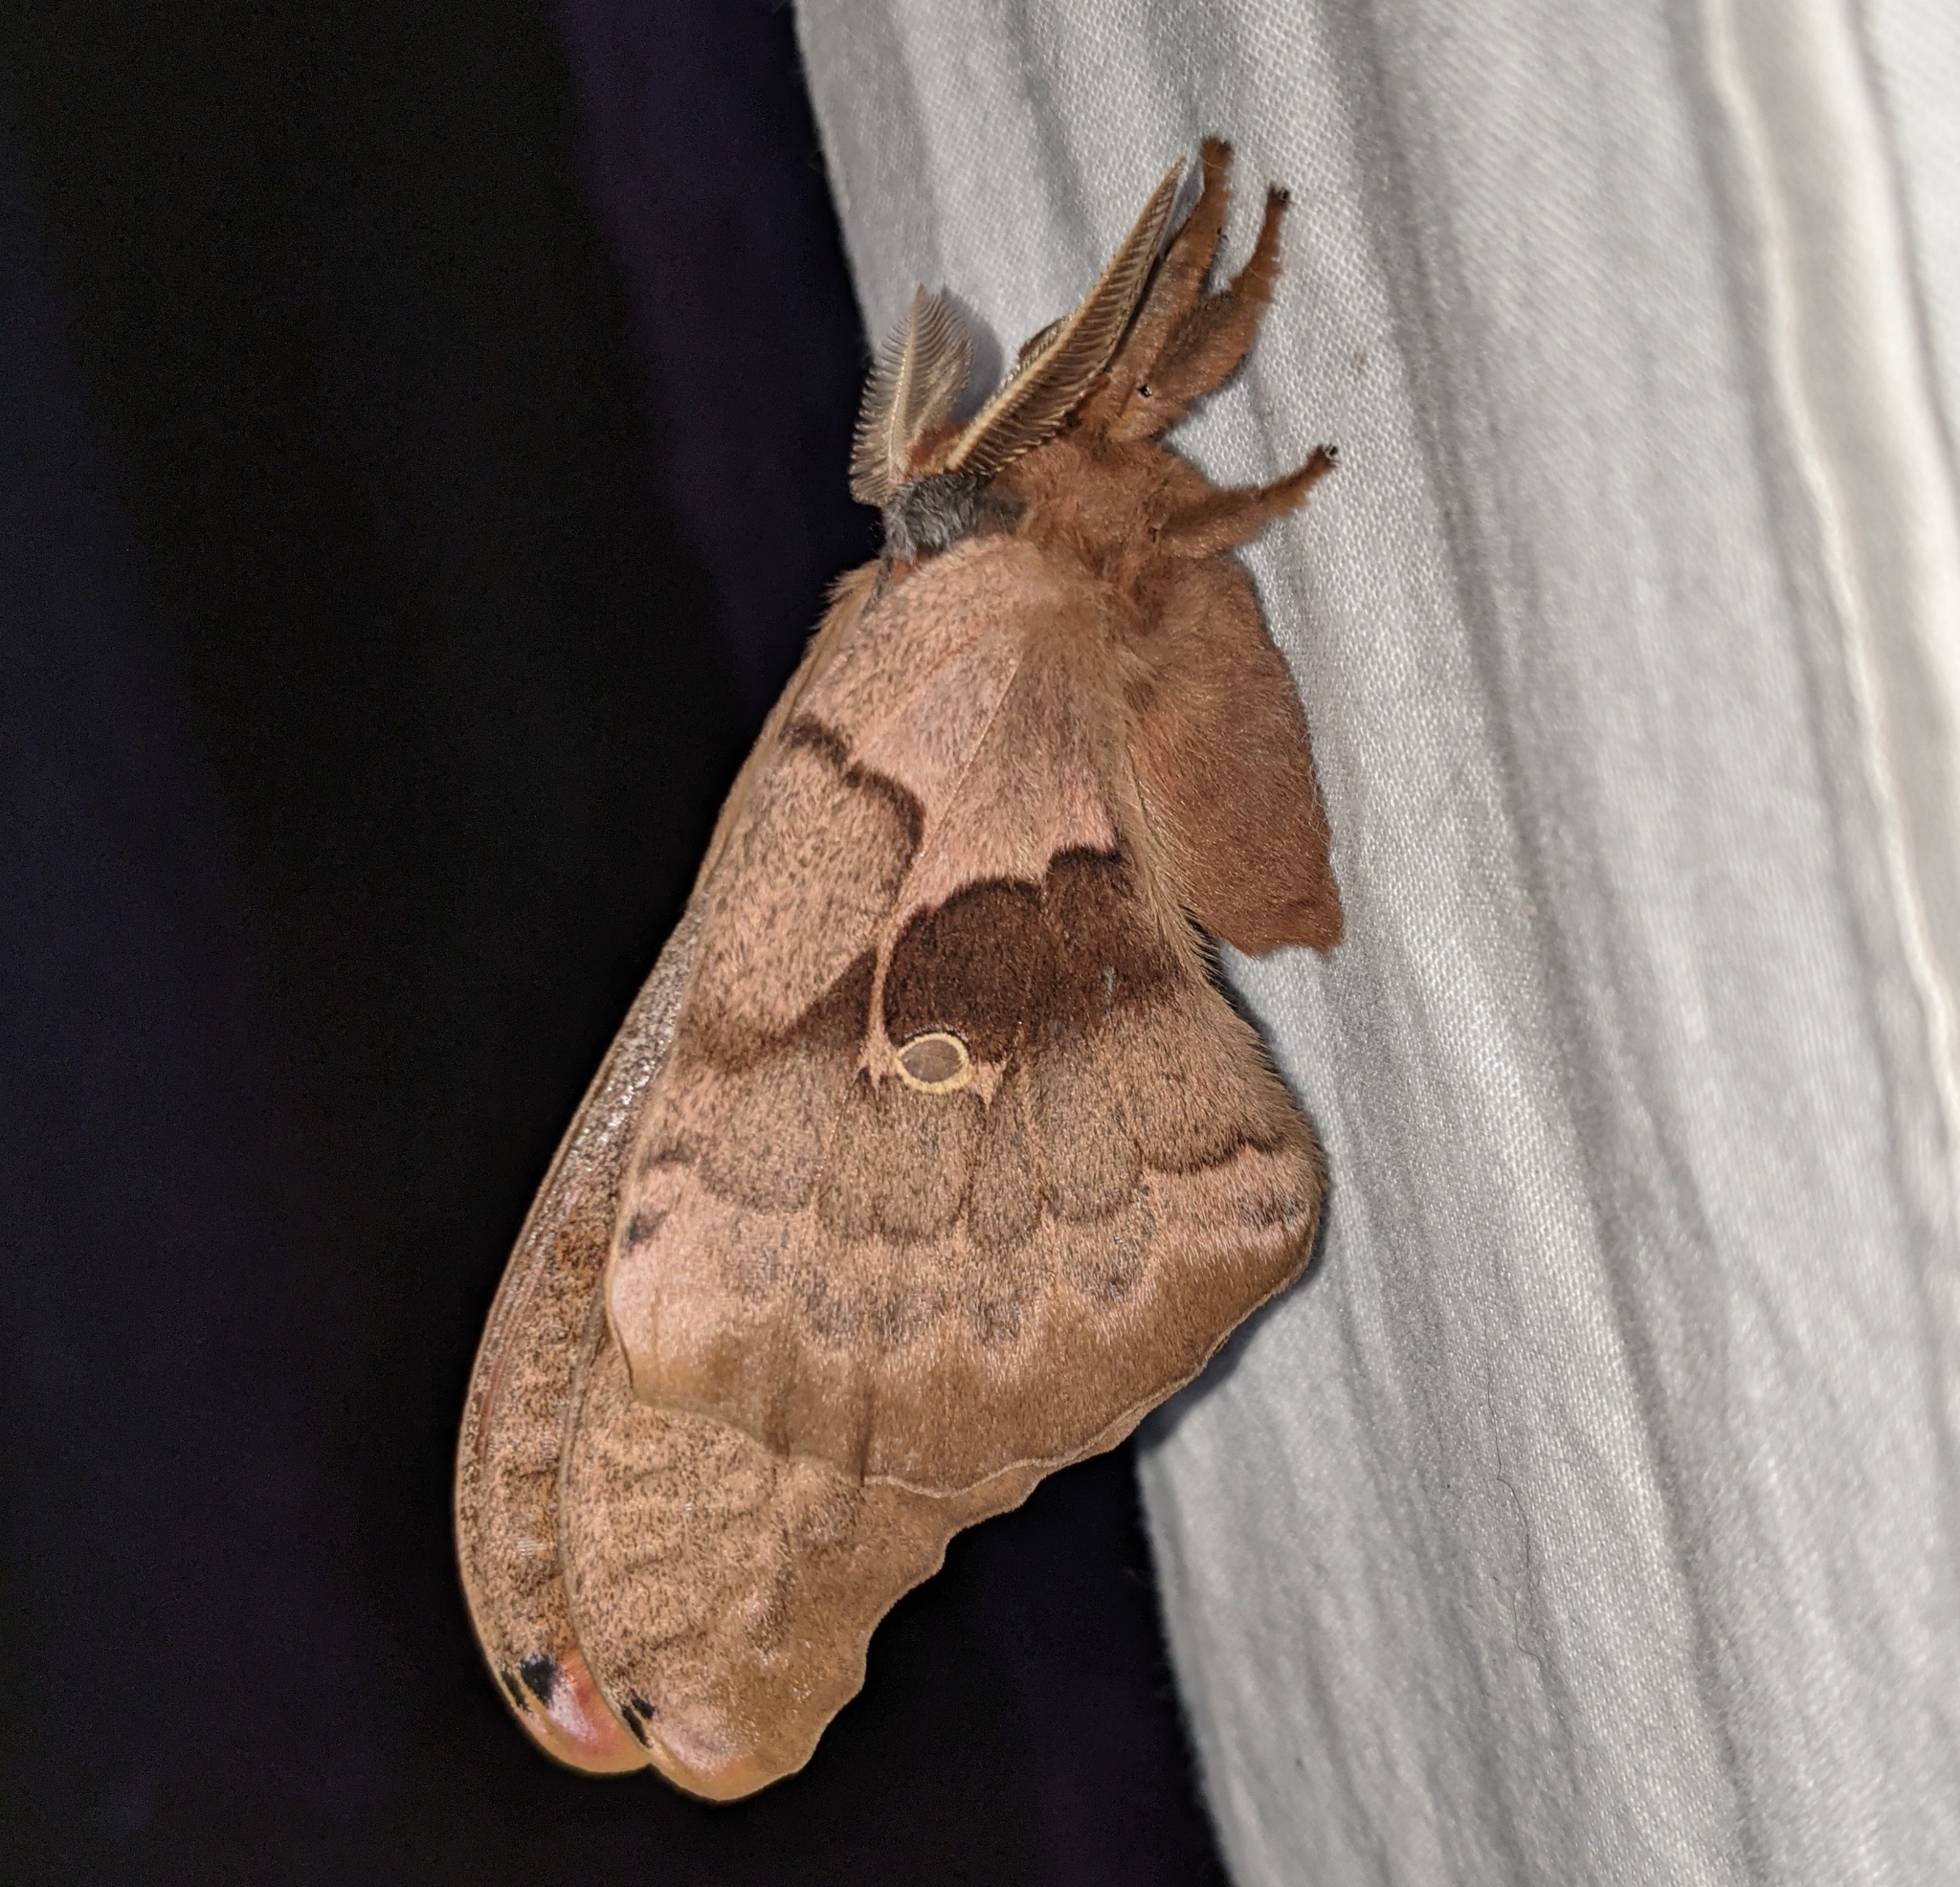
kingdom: Animalia
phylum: Arthropoda
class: Insecta
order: Lepidoptera
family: Saturniidae
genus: Antheraea
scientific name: Antheraea polyphemus
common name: Polyphemus moth
